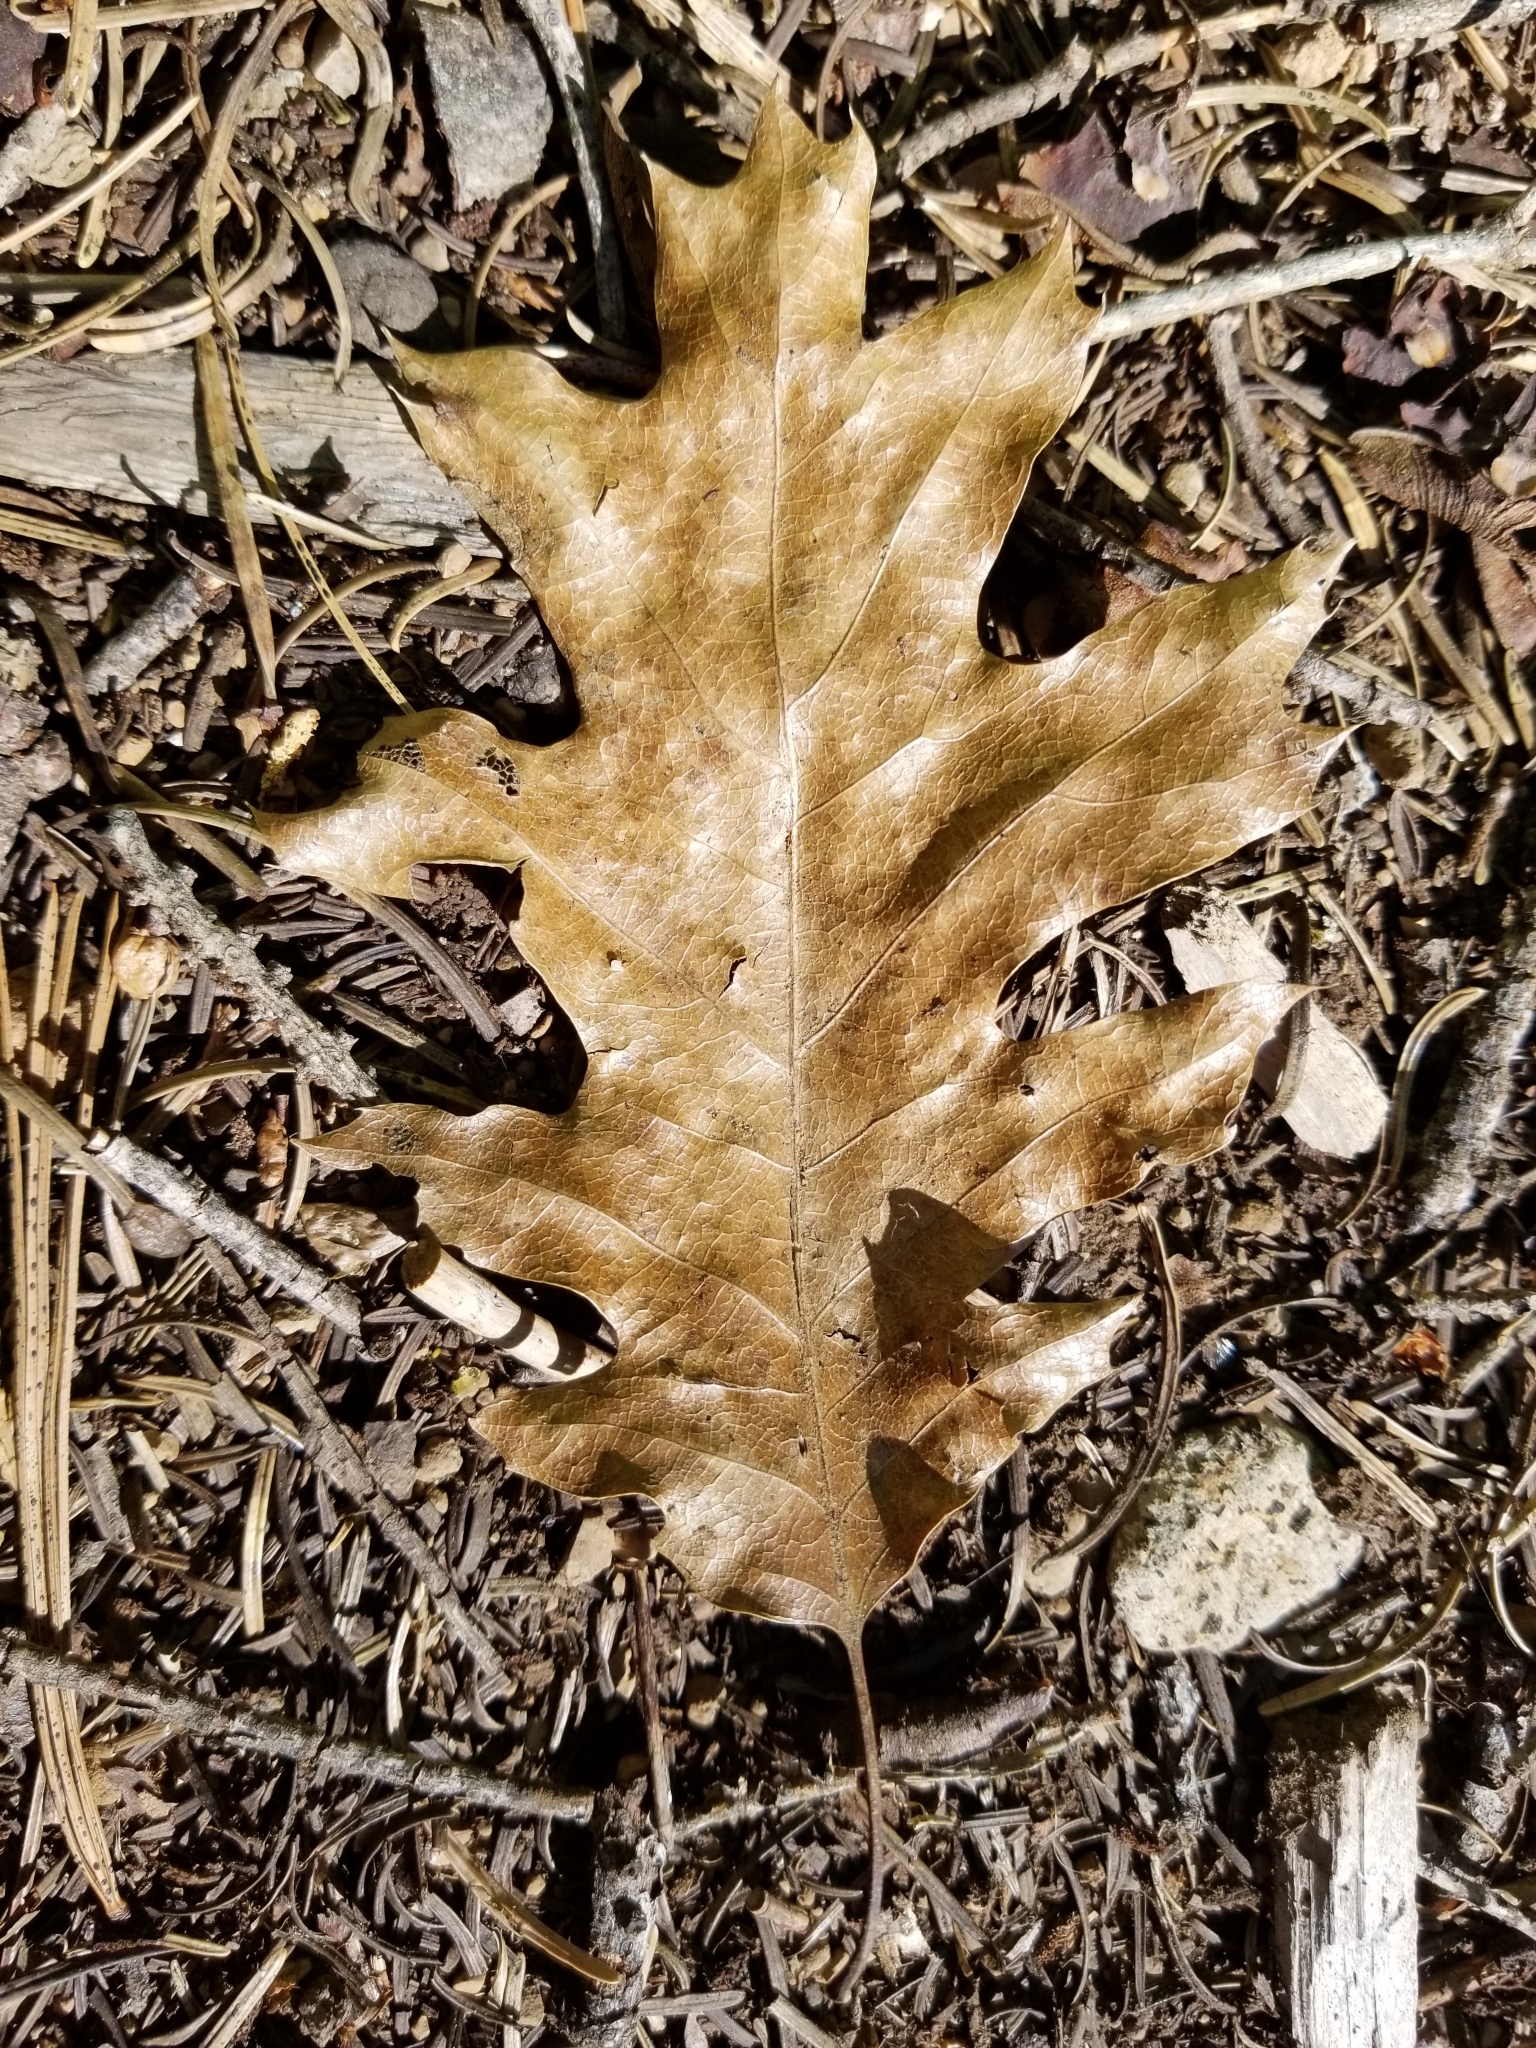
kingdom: Plantae
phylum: Tracheophyta
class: Magnoliopsida
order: Fagales
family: Fagaceae
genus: Quercus
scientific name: Quercus kelloggii
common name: California black oak
